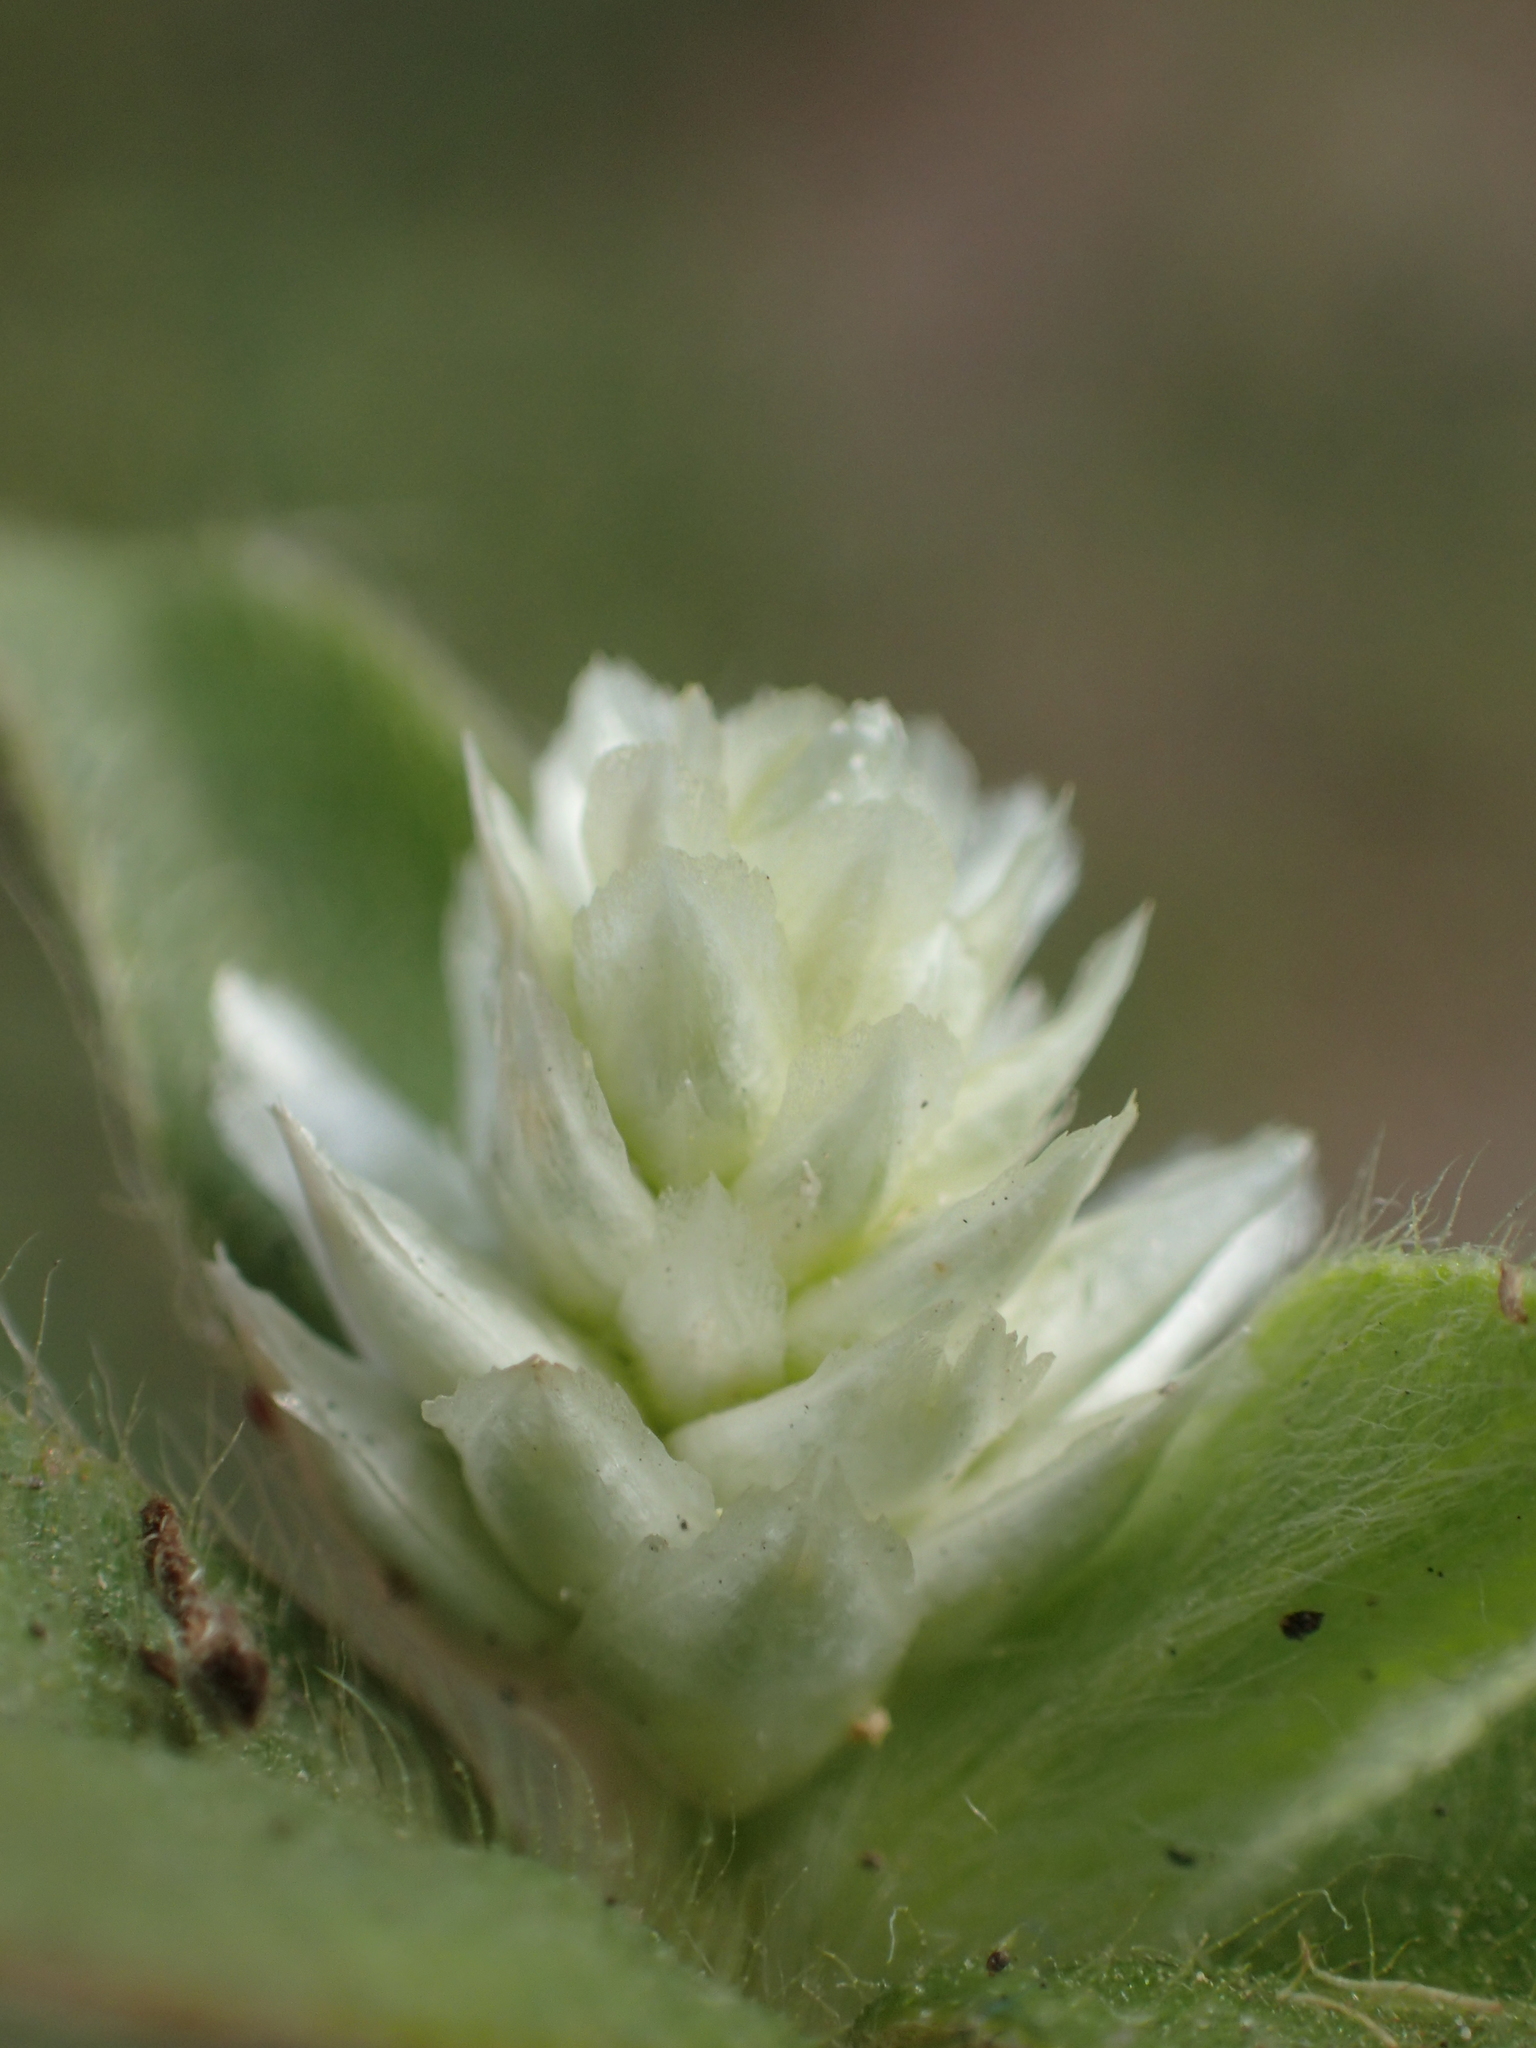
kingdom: Plantae
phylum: Tracheophyta
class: Magnoliopsida
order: Caryophyllales
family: Amaranthaceae
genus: Gomphrena
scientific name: Gomphrena serrata
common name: Arrasa con todo
